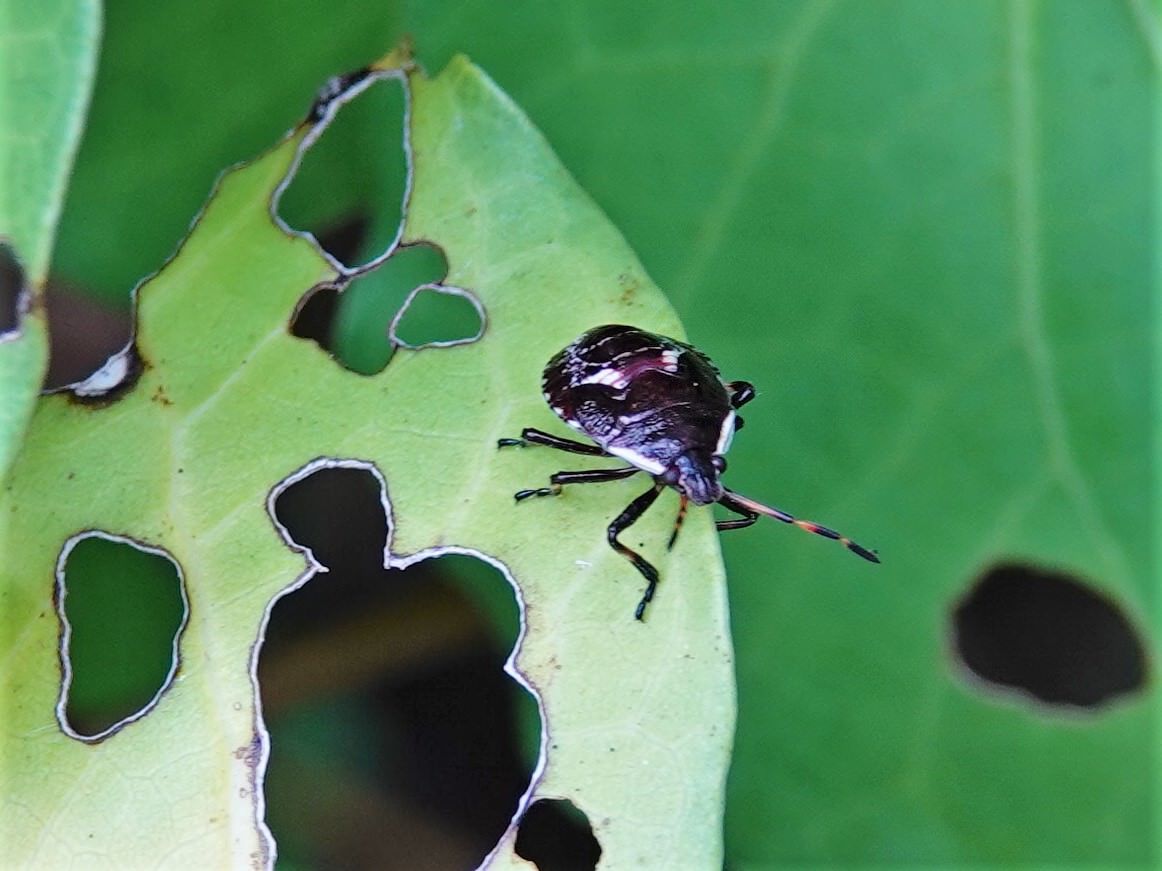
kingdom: Animalia
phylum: Arthropoda
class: Insecta
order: Hemiptera
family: Pentatomidae
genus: Cermatulus
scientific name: Cermatulus nasalis
